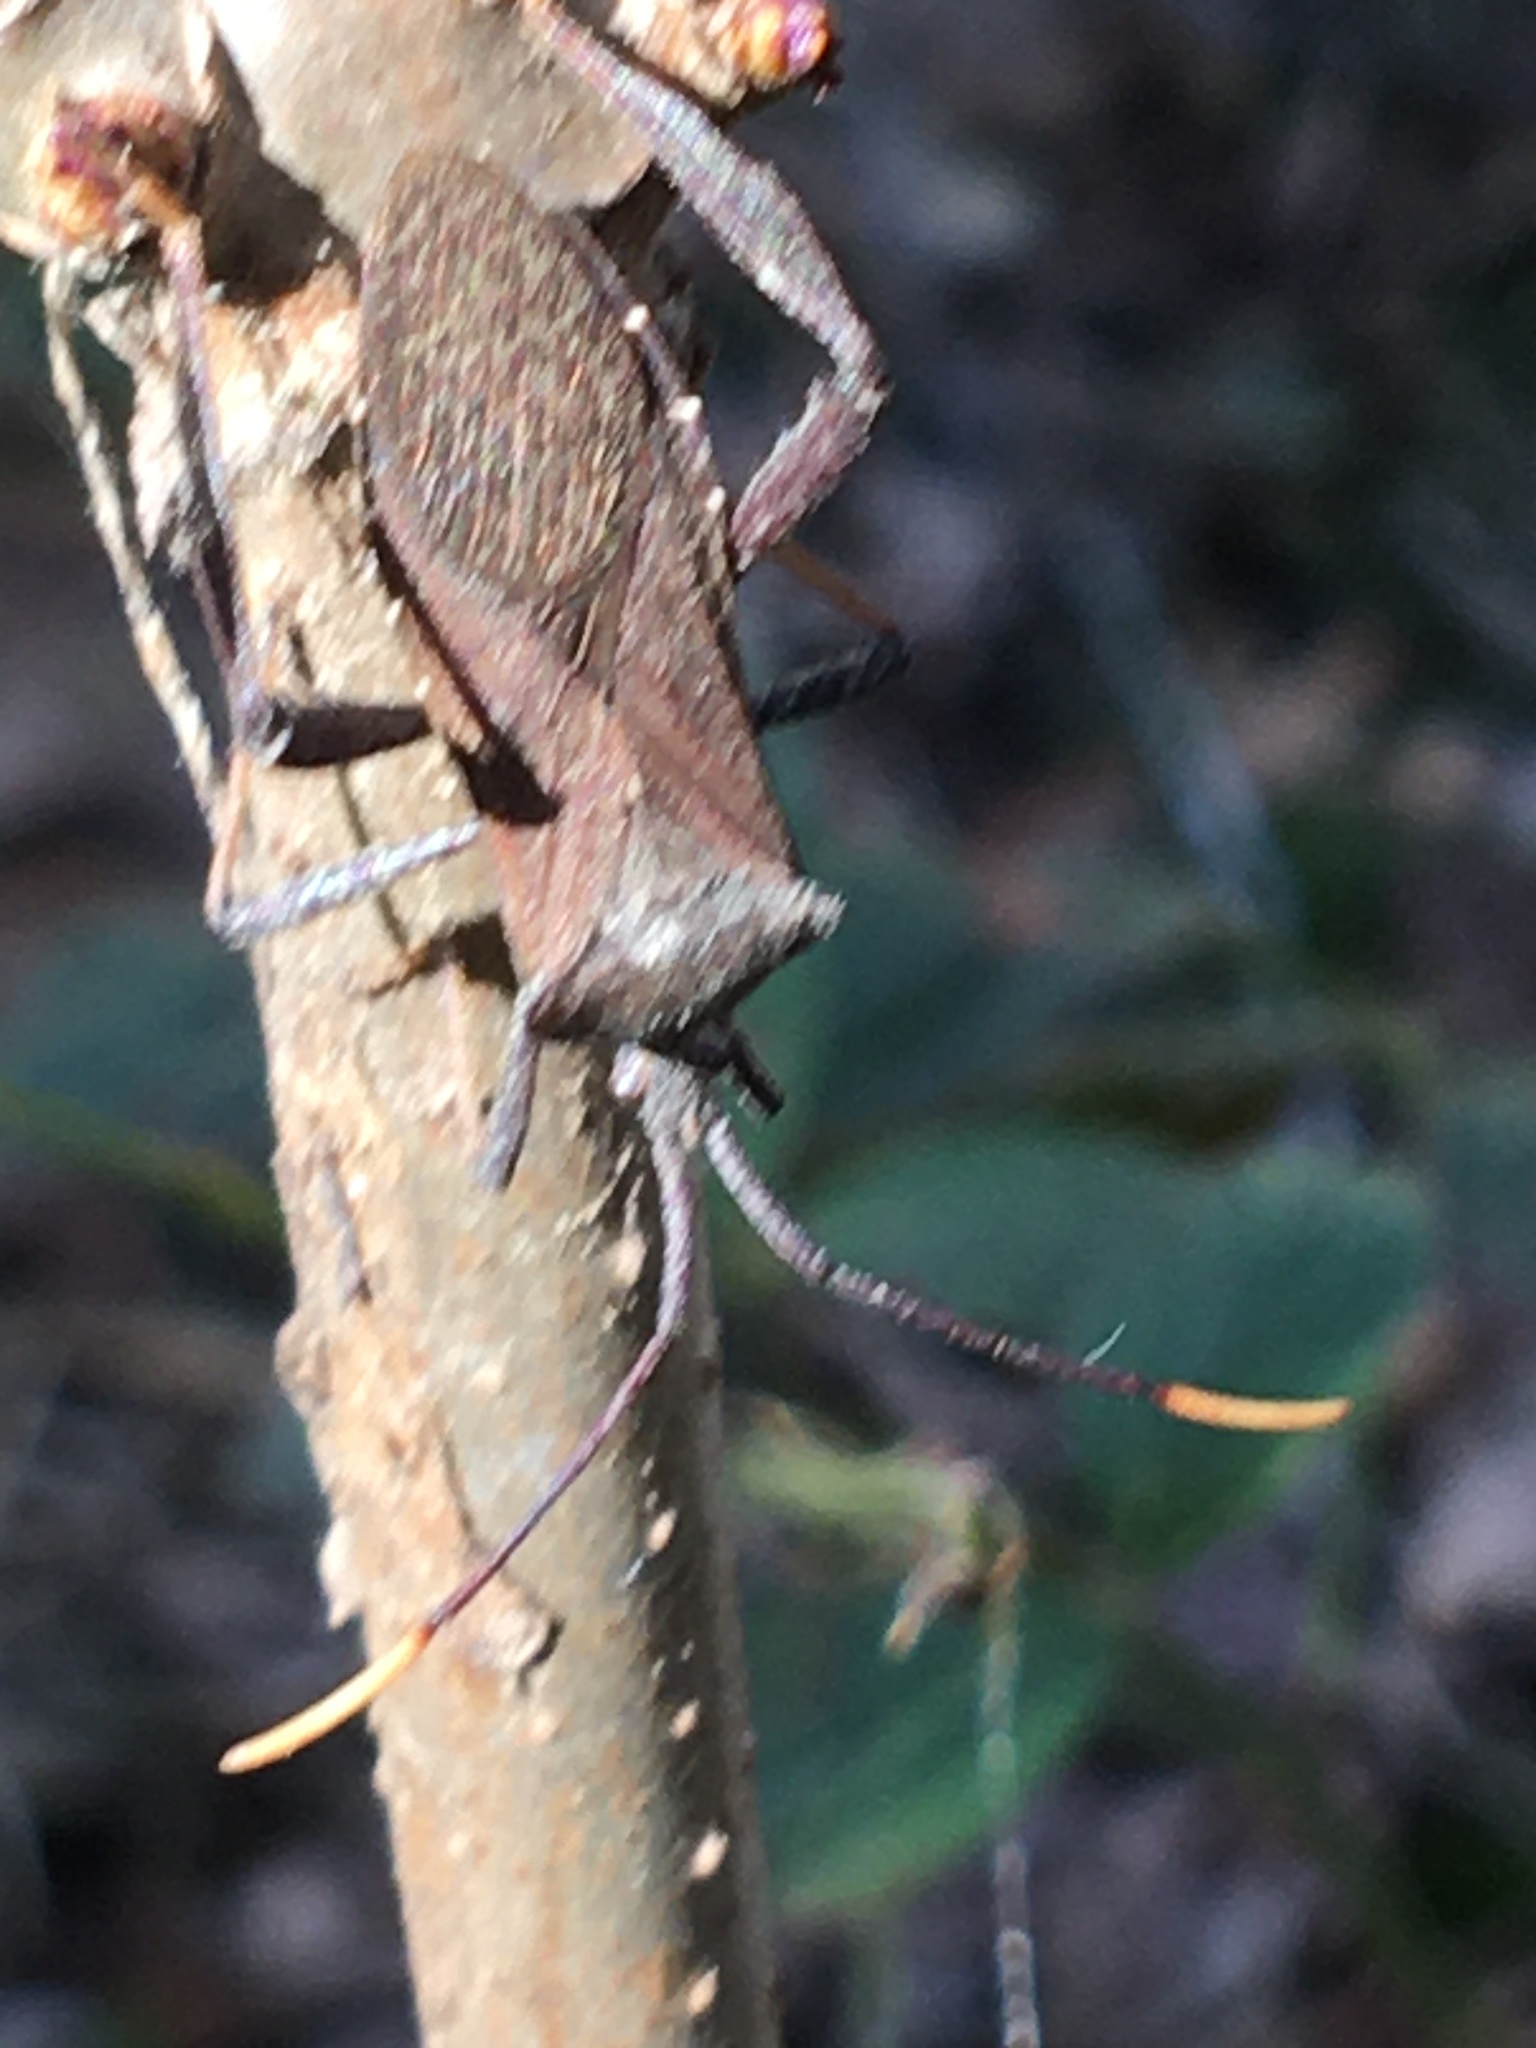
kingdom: Animalia
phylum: Arthropoda
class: Insecta
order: Hemiptera
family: Coreidae
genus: Acanthocephala
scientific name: Acanthocephala terminalis
